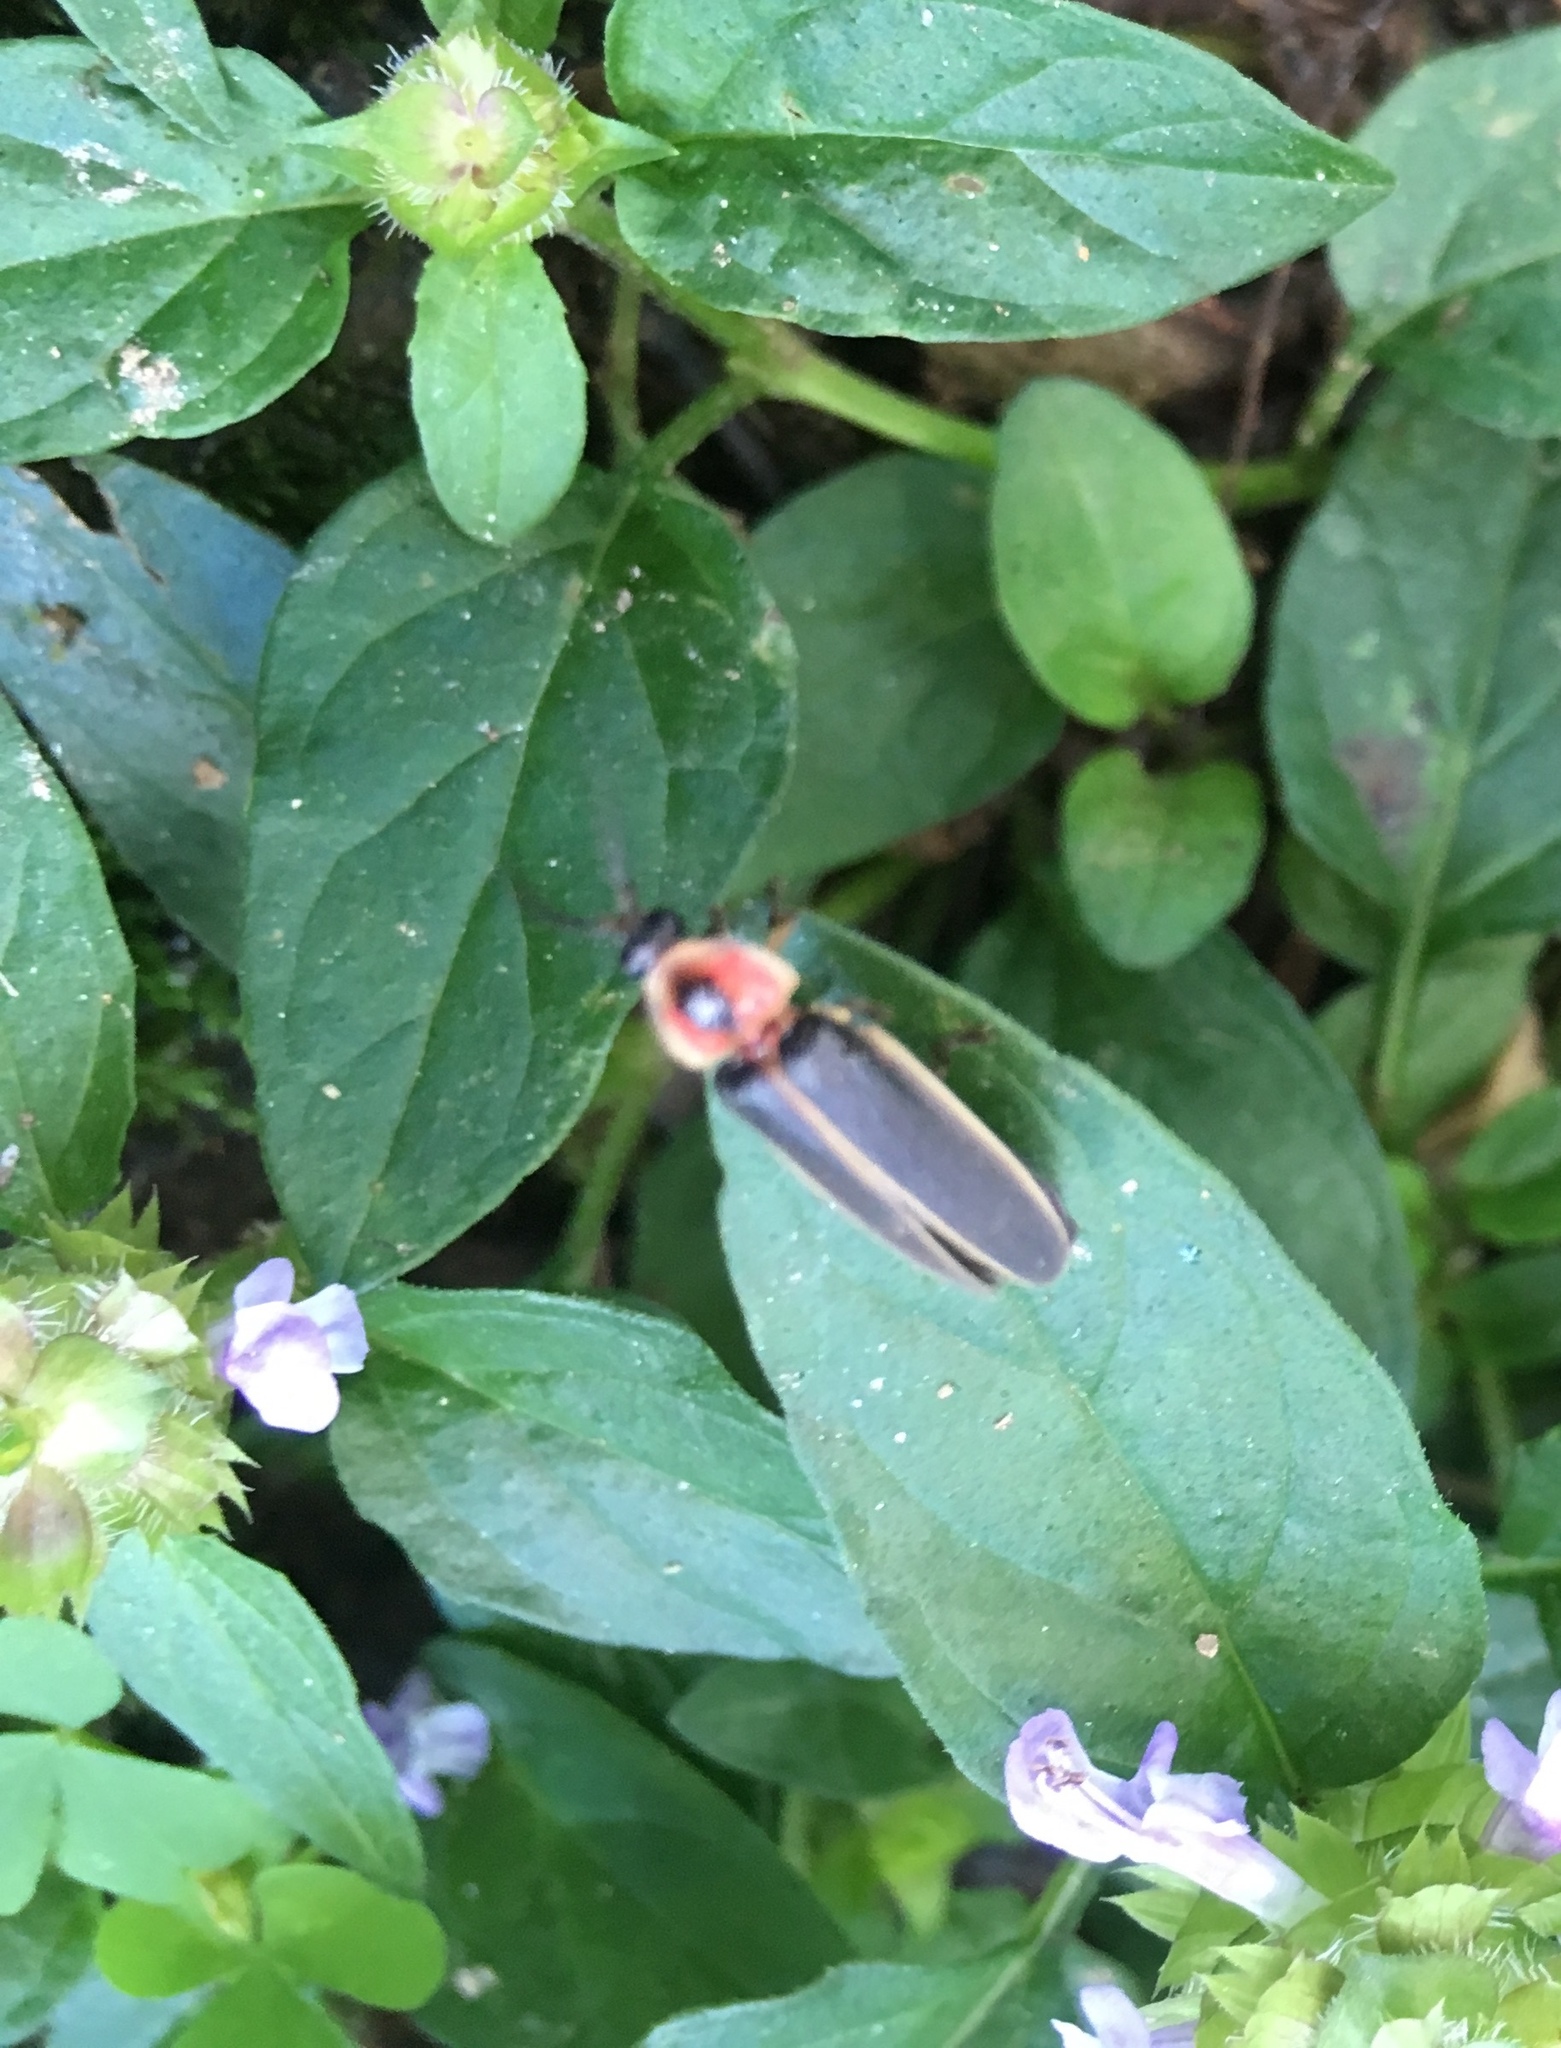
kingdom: Animalia
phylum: Arthropoda
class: Insecta
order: Coleoptera
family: Lampyridae
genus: Photinus
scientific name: Photinus pyralis
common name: Big dipper firefly
